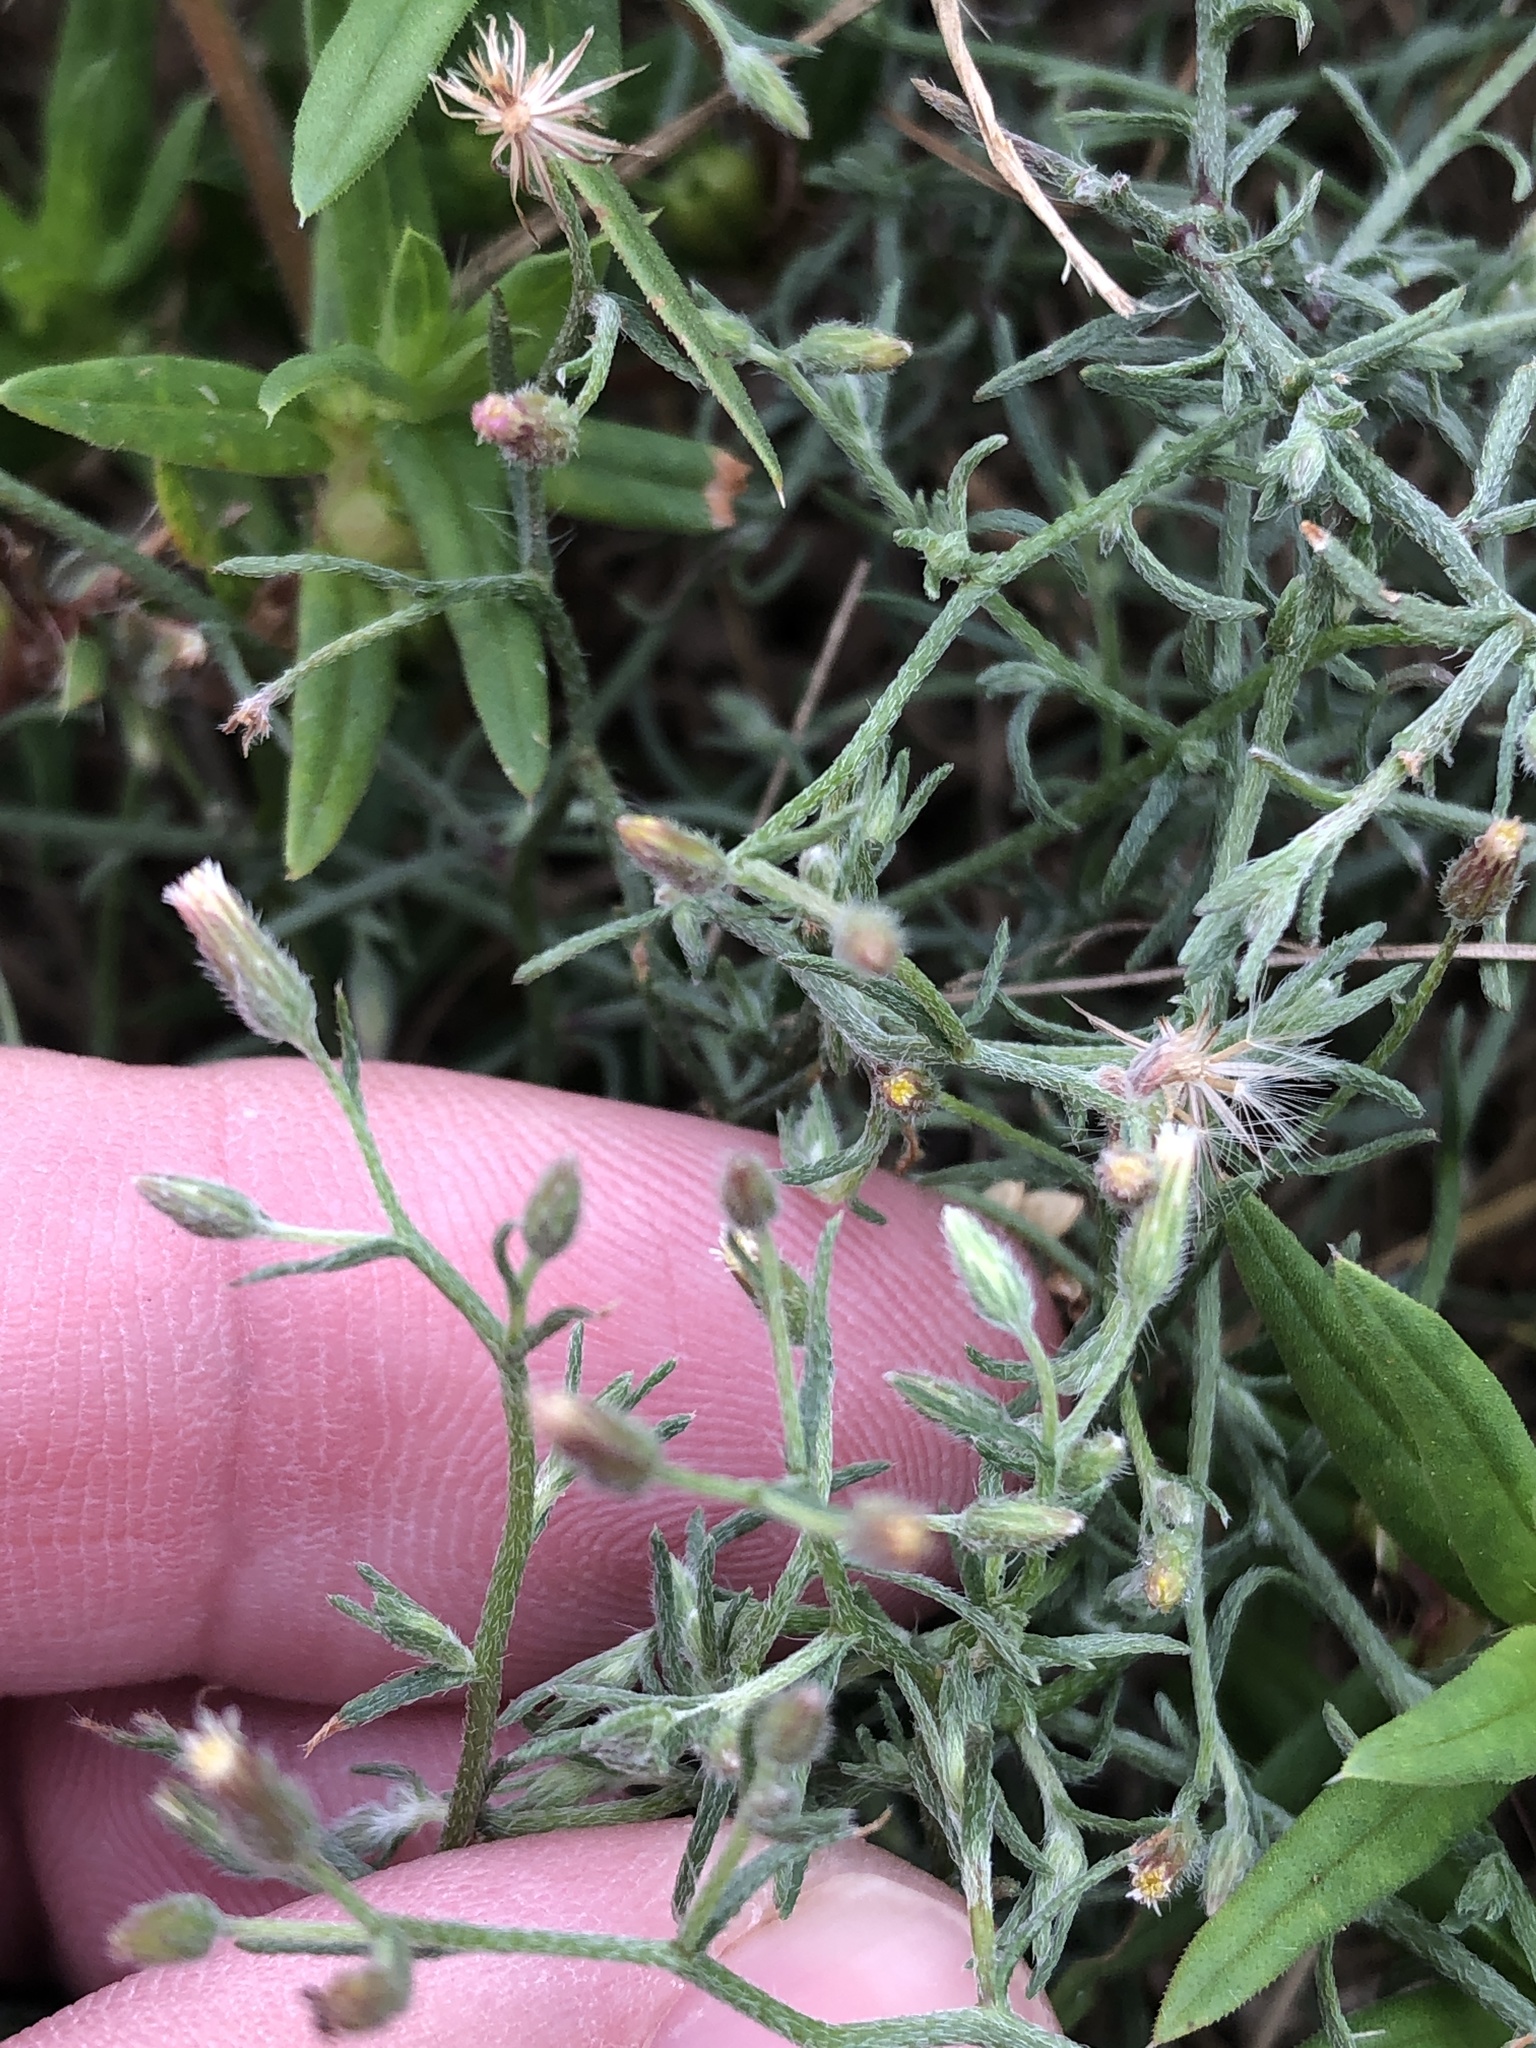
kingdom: Plantae
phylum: Tracheophyta
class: Magnoliopsida
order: Asterales
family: Asteraceae
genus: Erigeron
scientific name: Erigeron divaricatus
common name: Dwarf conyza
